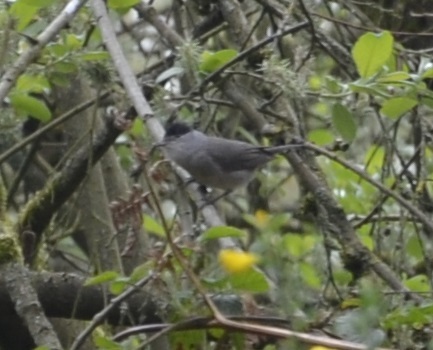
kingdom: Animalia
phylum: Chordata
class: Aves
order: Passeriformes
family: Sylviidae
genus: Sylvia
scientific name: Sylvia atricapilla
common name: Eurasian blackcap
